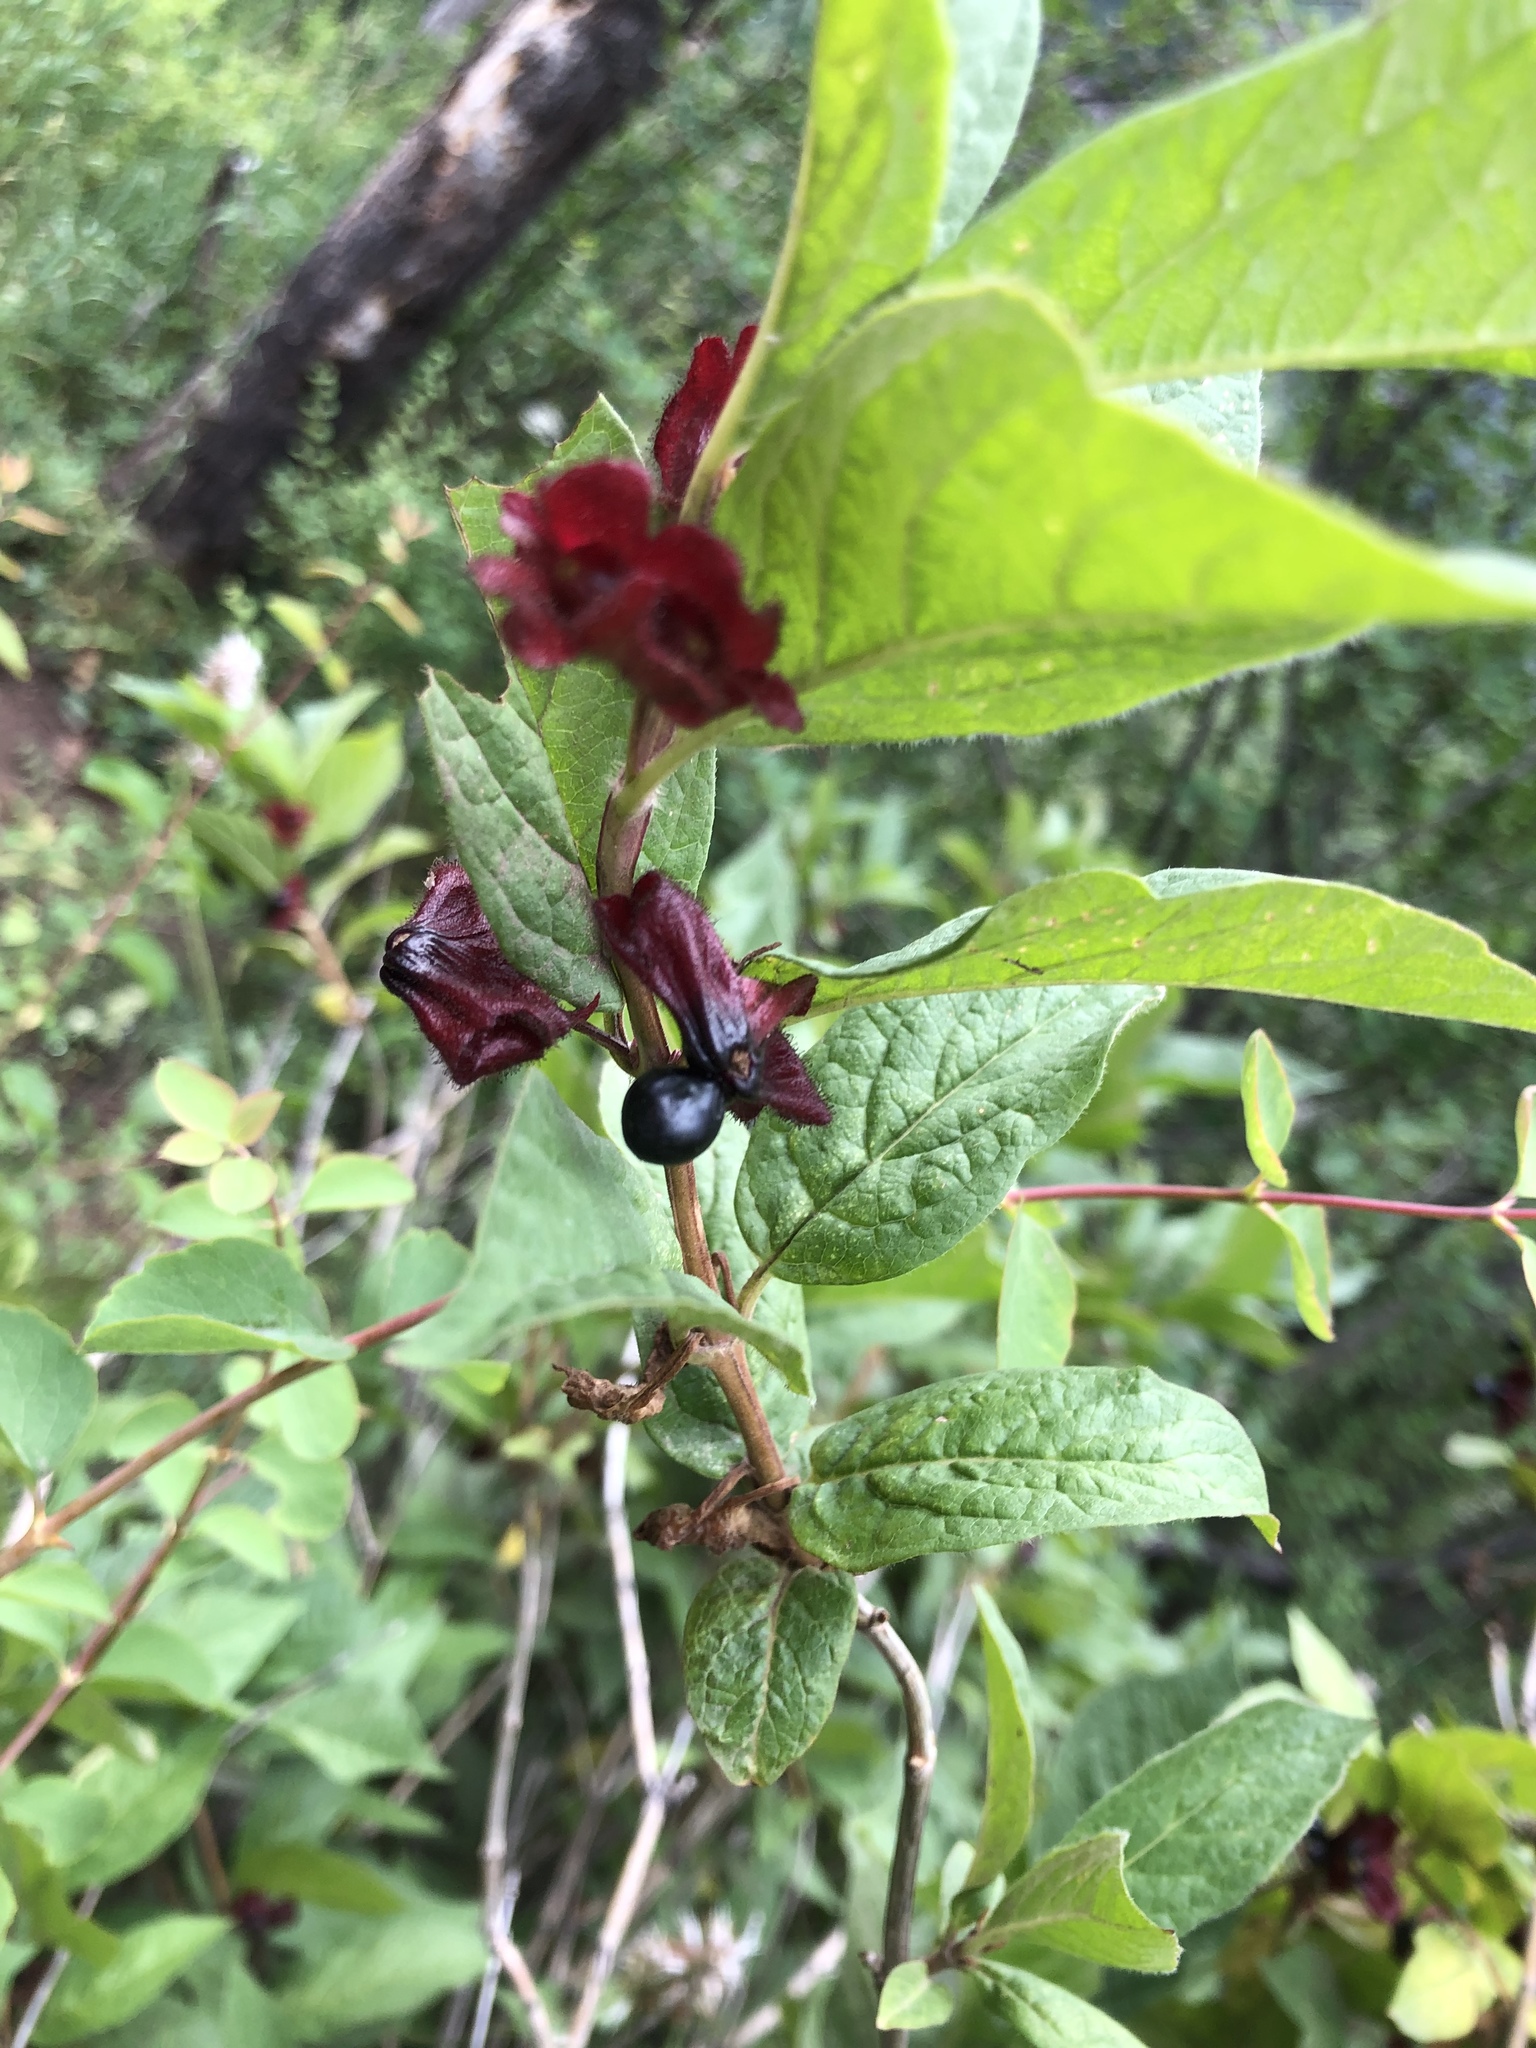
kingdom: Plantae
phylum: Tracheophyta
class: Magnoliopsida
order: Dipsacales
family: Caprifoliaceae
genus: Lonicera
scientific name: Lonicera involucrata
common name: Californian honeysuckle
